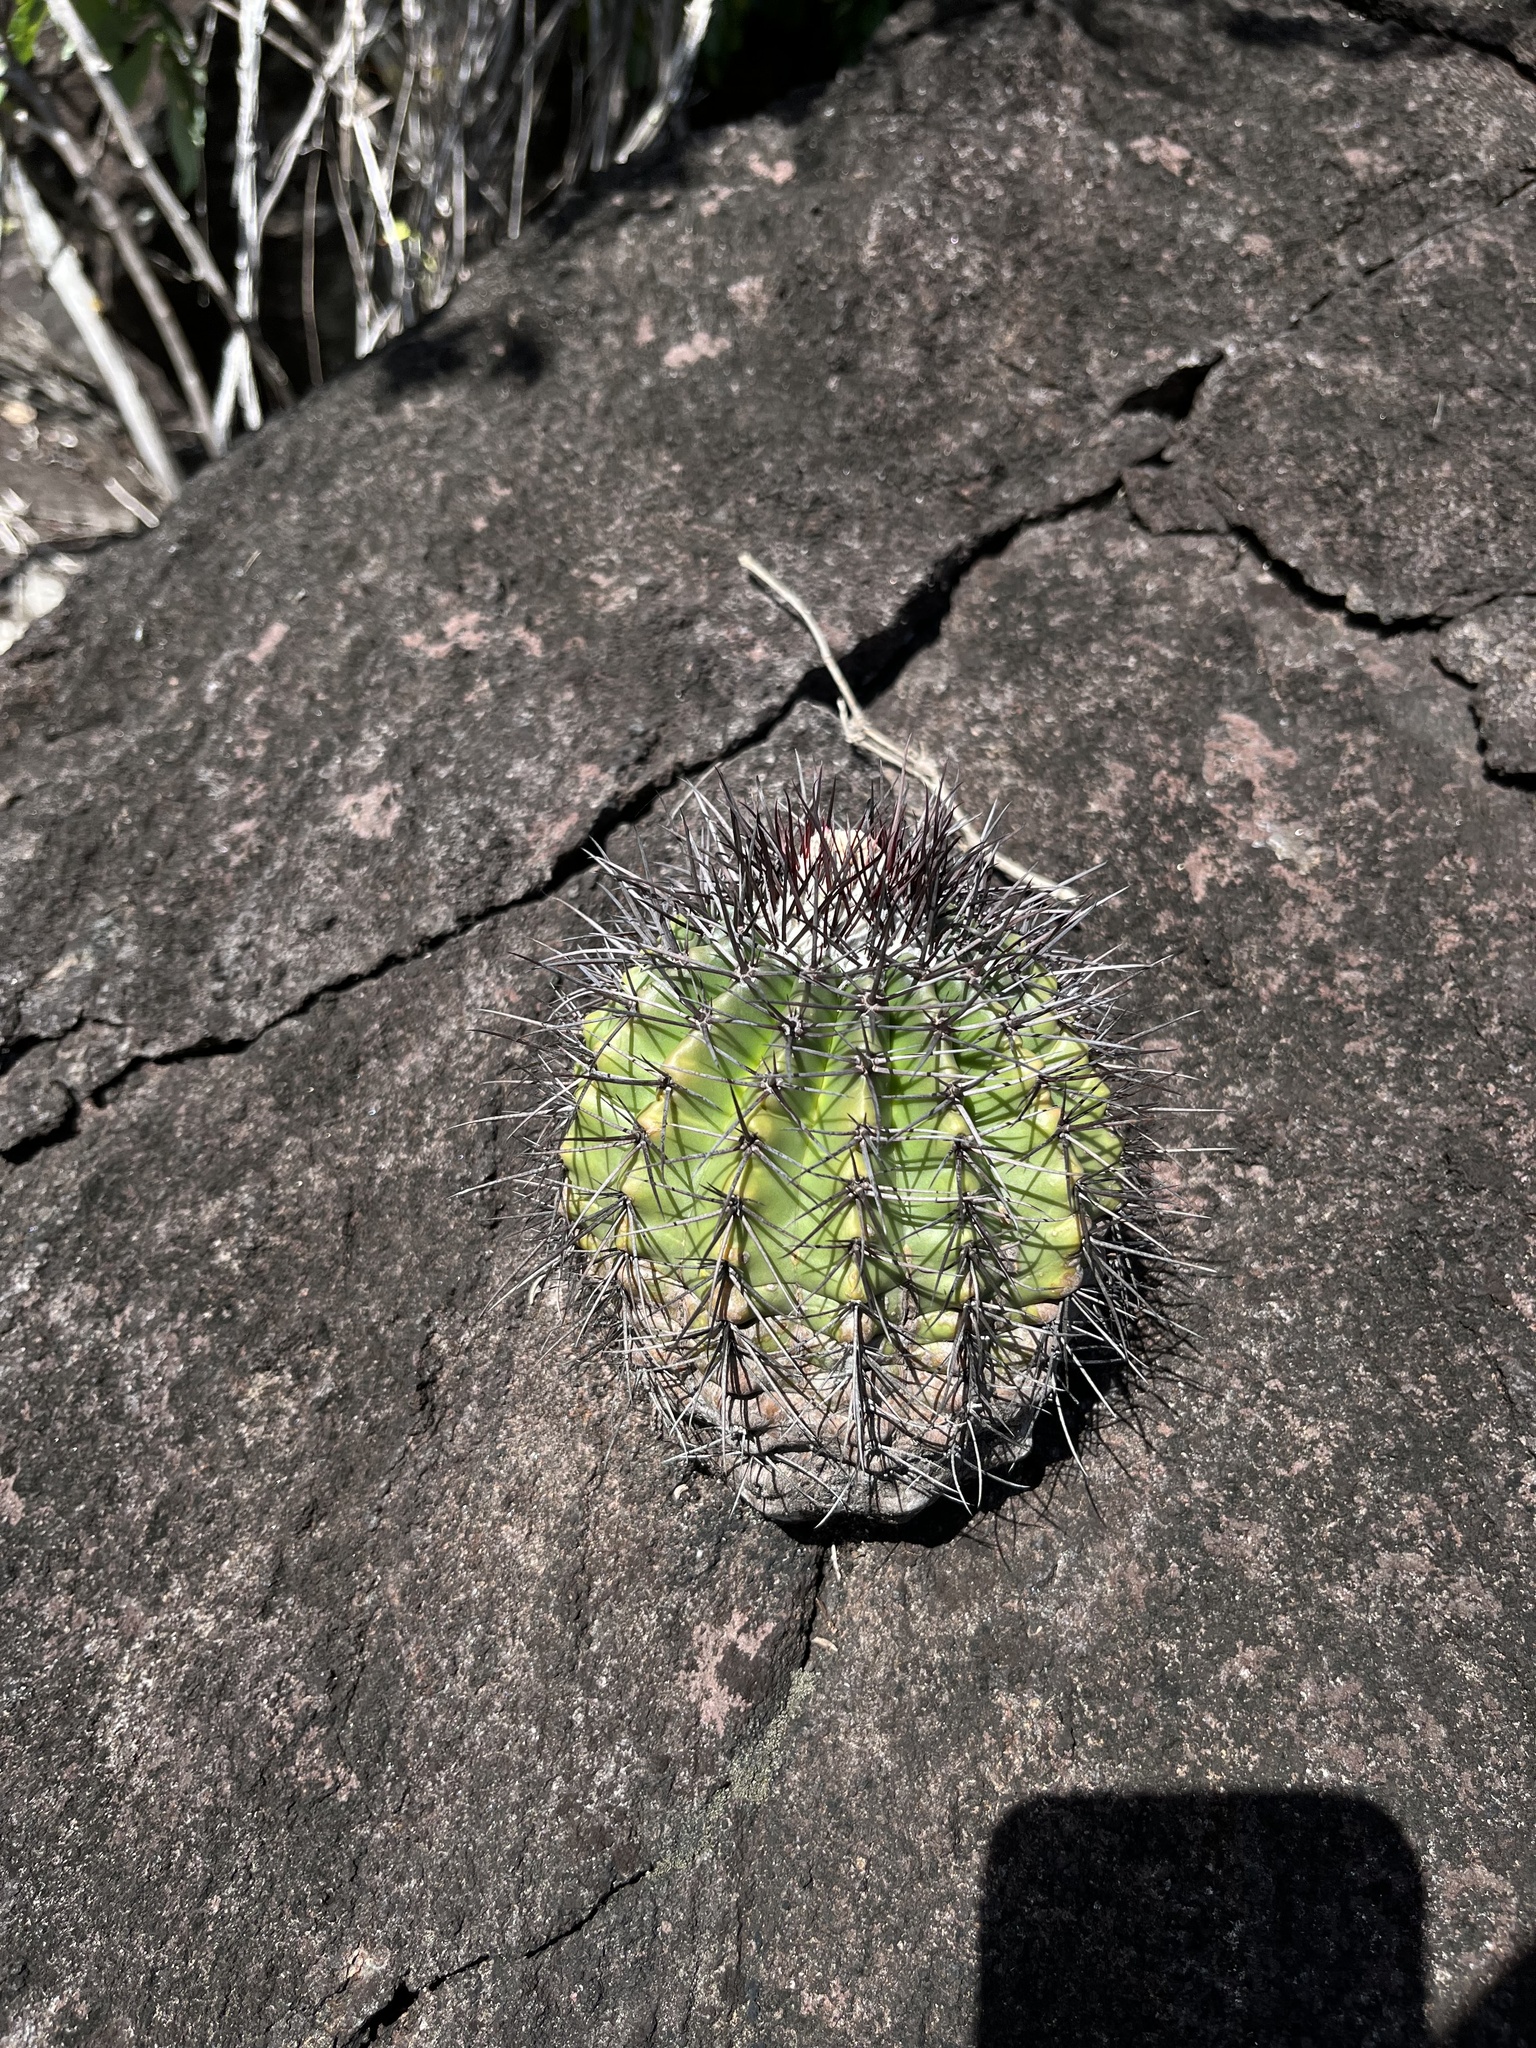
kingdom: Plantae
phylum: Tracheophyta
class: Magnoliopsida
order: Caryophyllales
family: Cactaceae
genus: Melocactus
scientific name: Melocactus smithii
